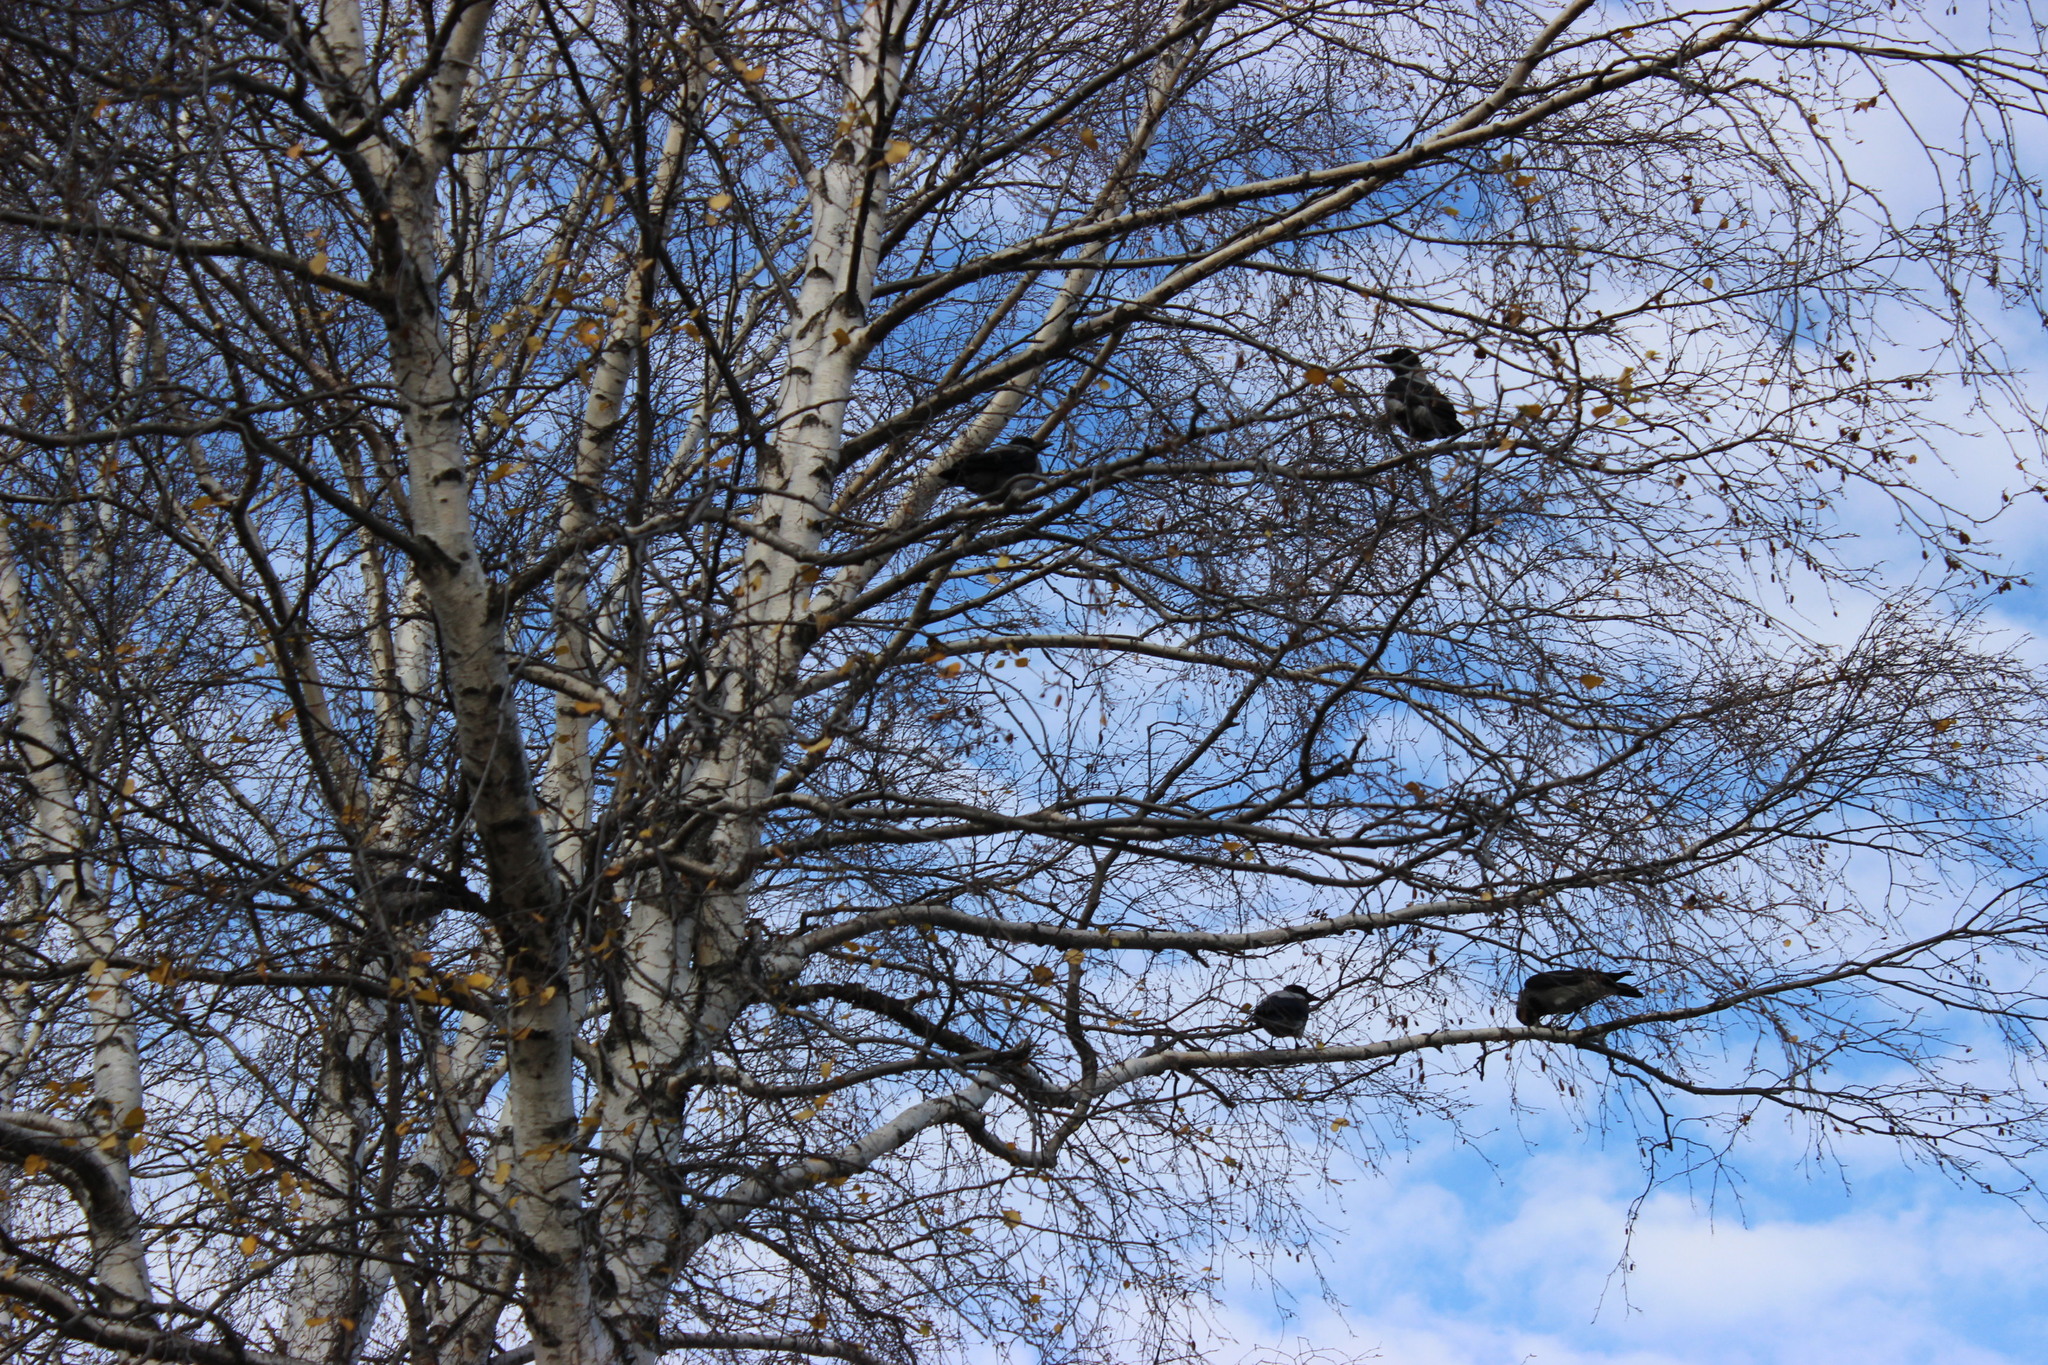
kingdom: Animalia
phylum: Chordata
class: Aves
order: Passeriformes
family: Corvidae
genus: Corvus
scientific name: Corvus cornix
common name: Hooded crow
